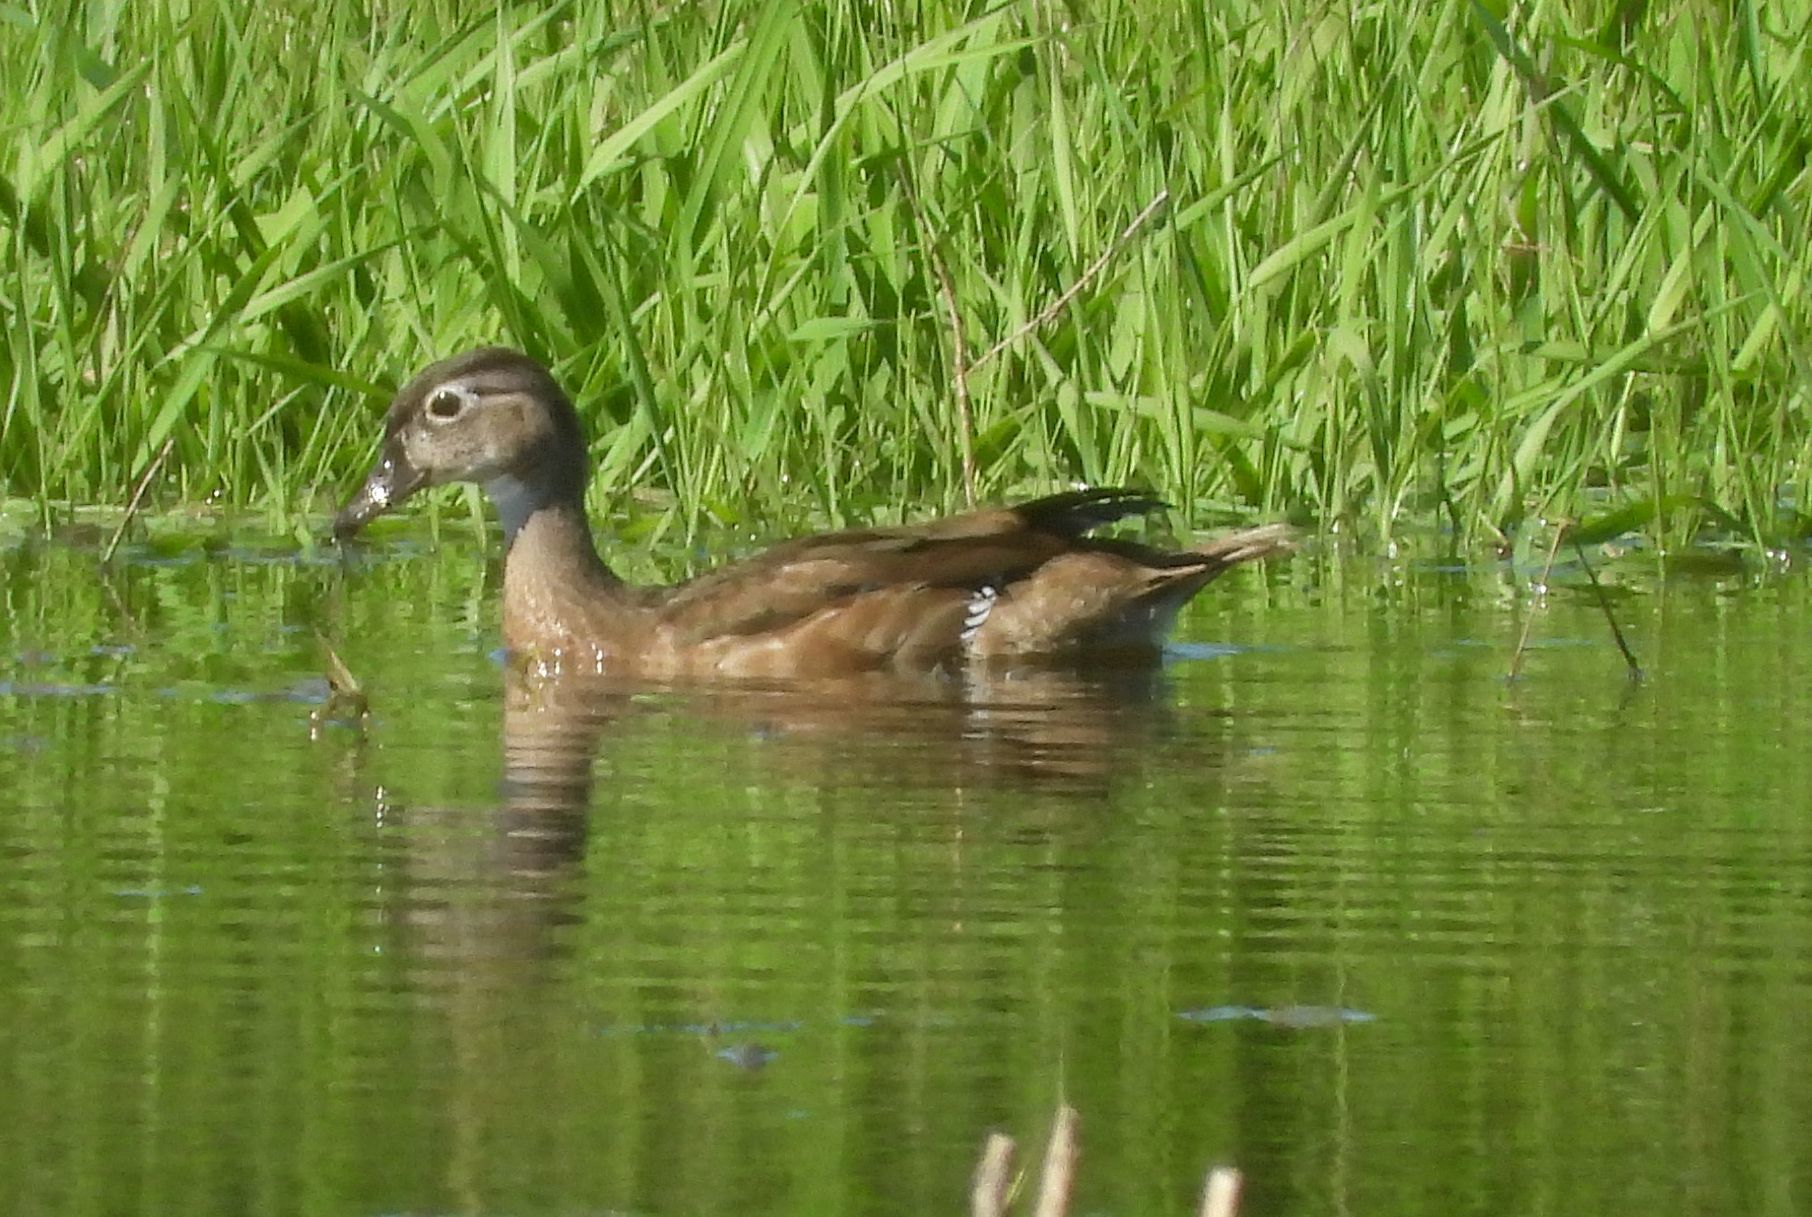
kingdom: Animalia
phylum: Chordata
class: Aves
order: Anseriformes
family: Anatidae
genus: Aix
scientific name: Aix sponsa
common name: Wood duck
